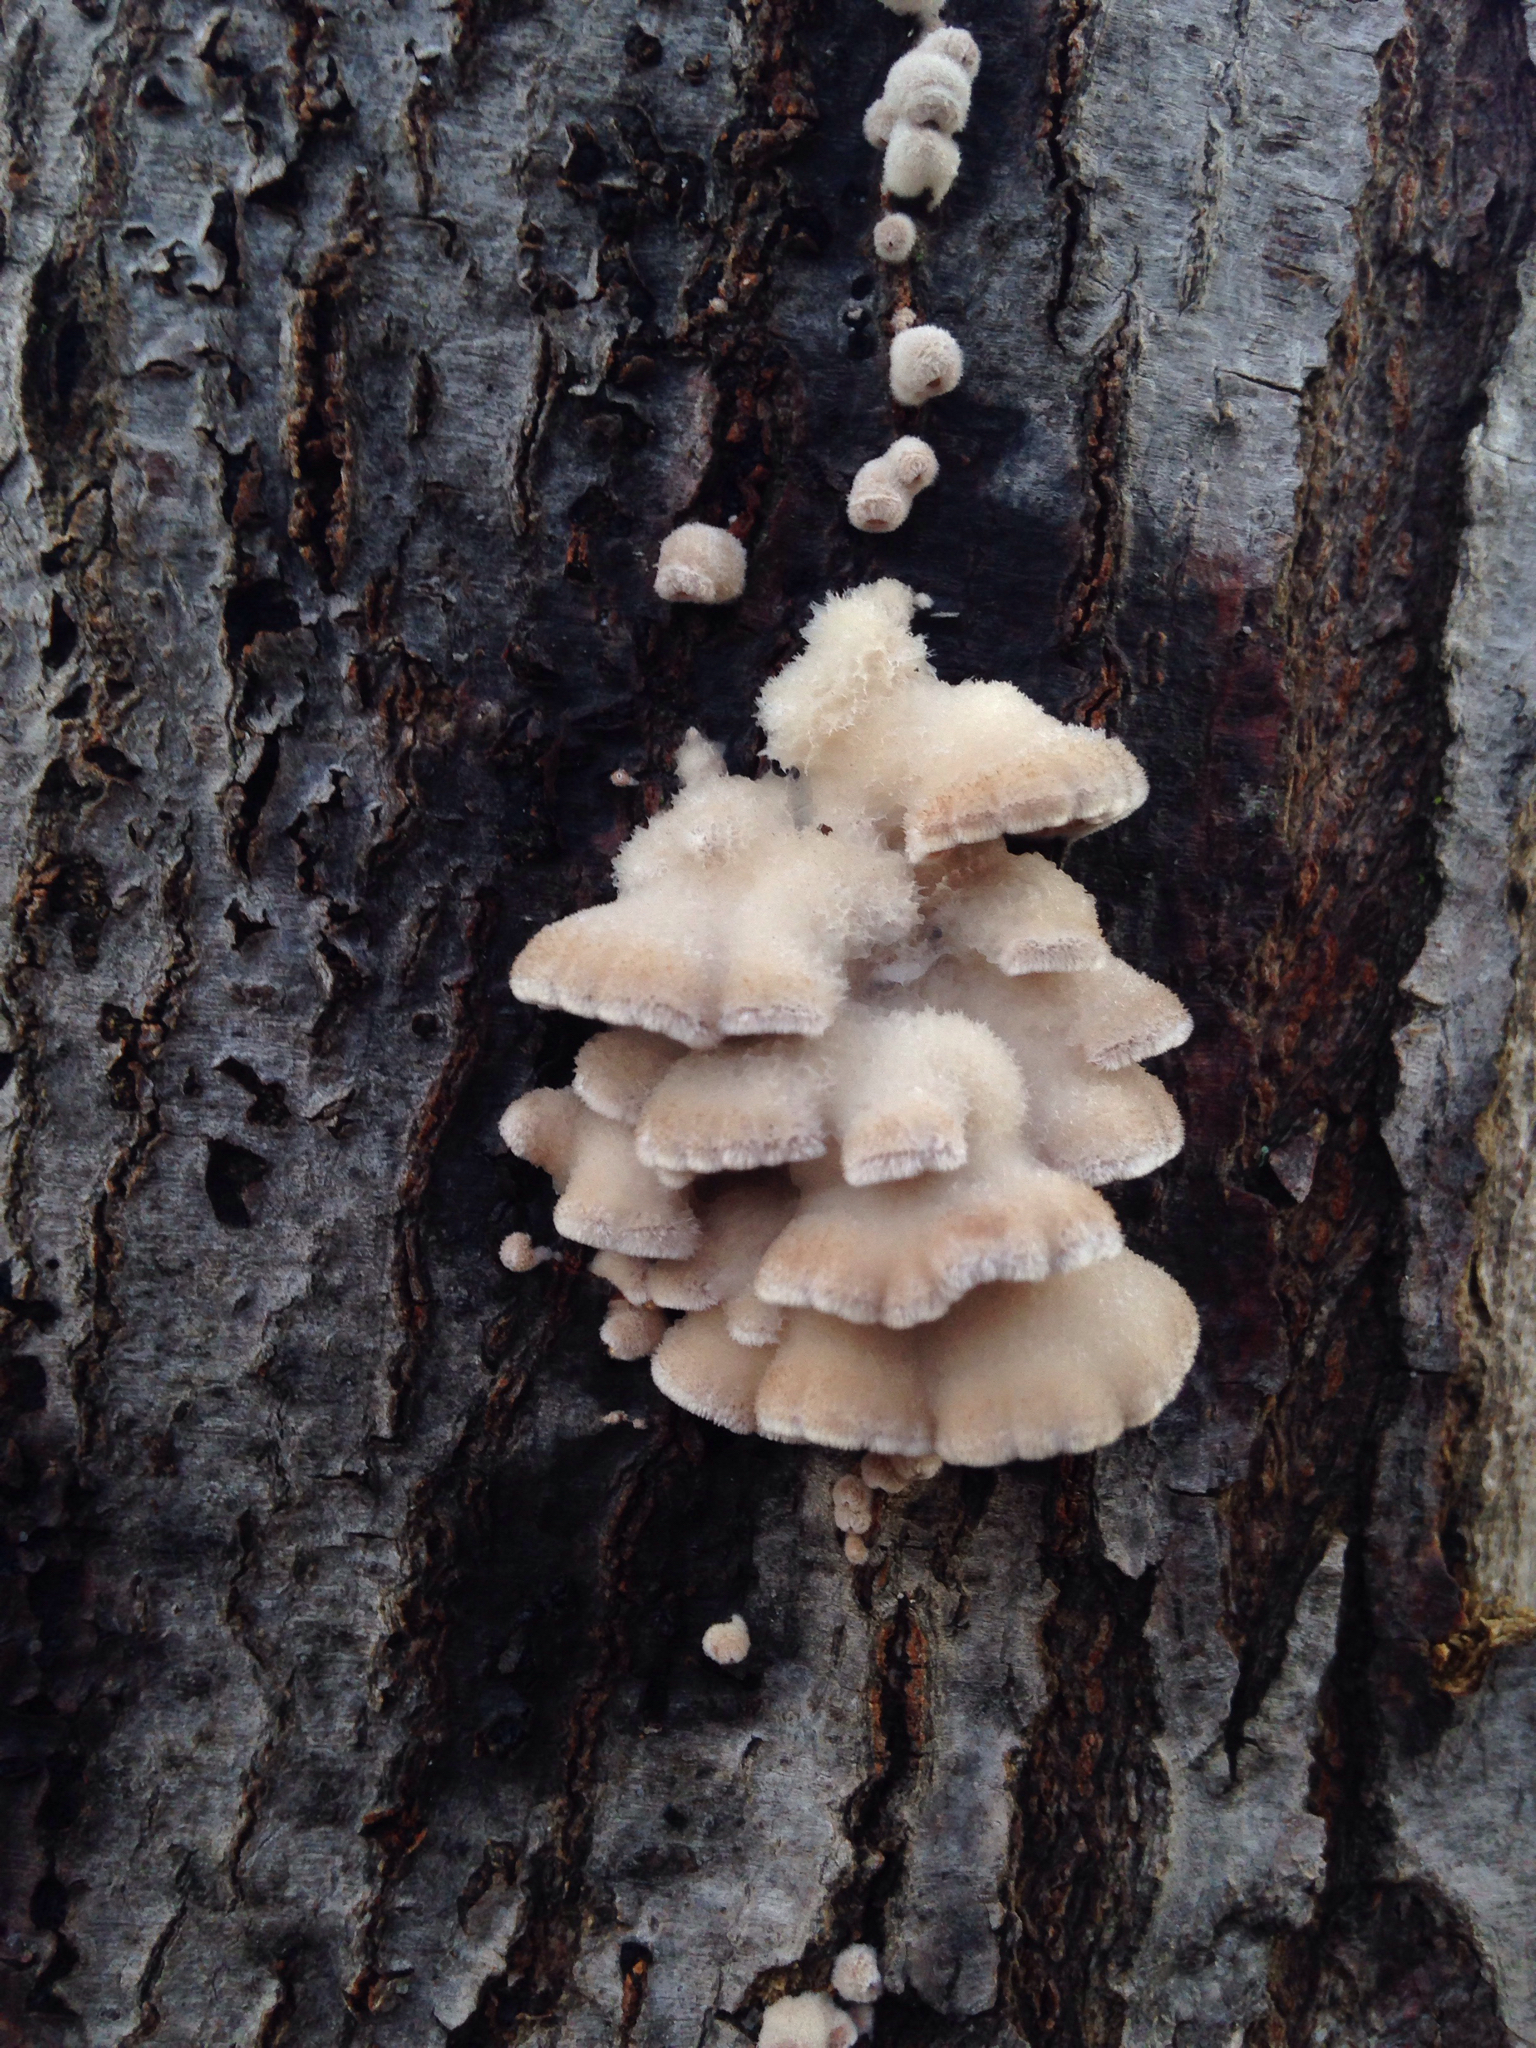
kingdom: Fungi
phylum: Basidiomycota
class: Agaricomycetes
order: Agaricales
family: Schizophyllaceae
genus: Schizophyllum
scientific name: Schizophyllum commune
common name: Common porecrust
